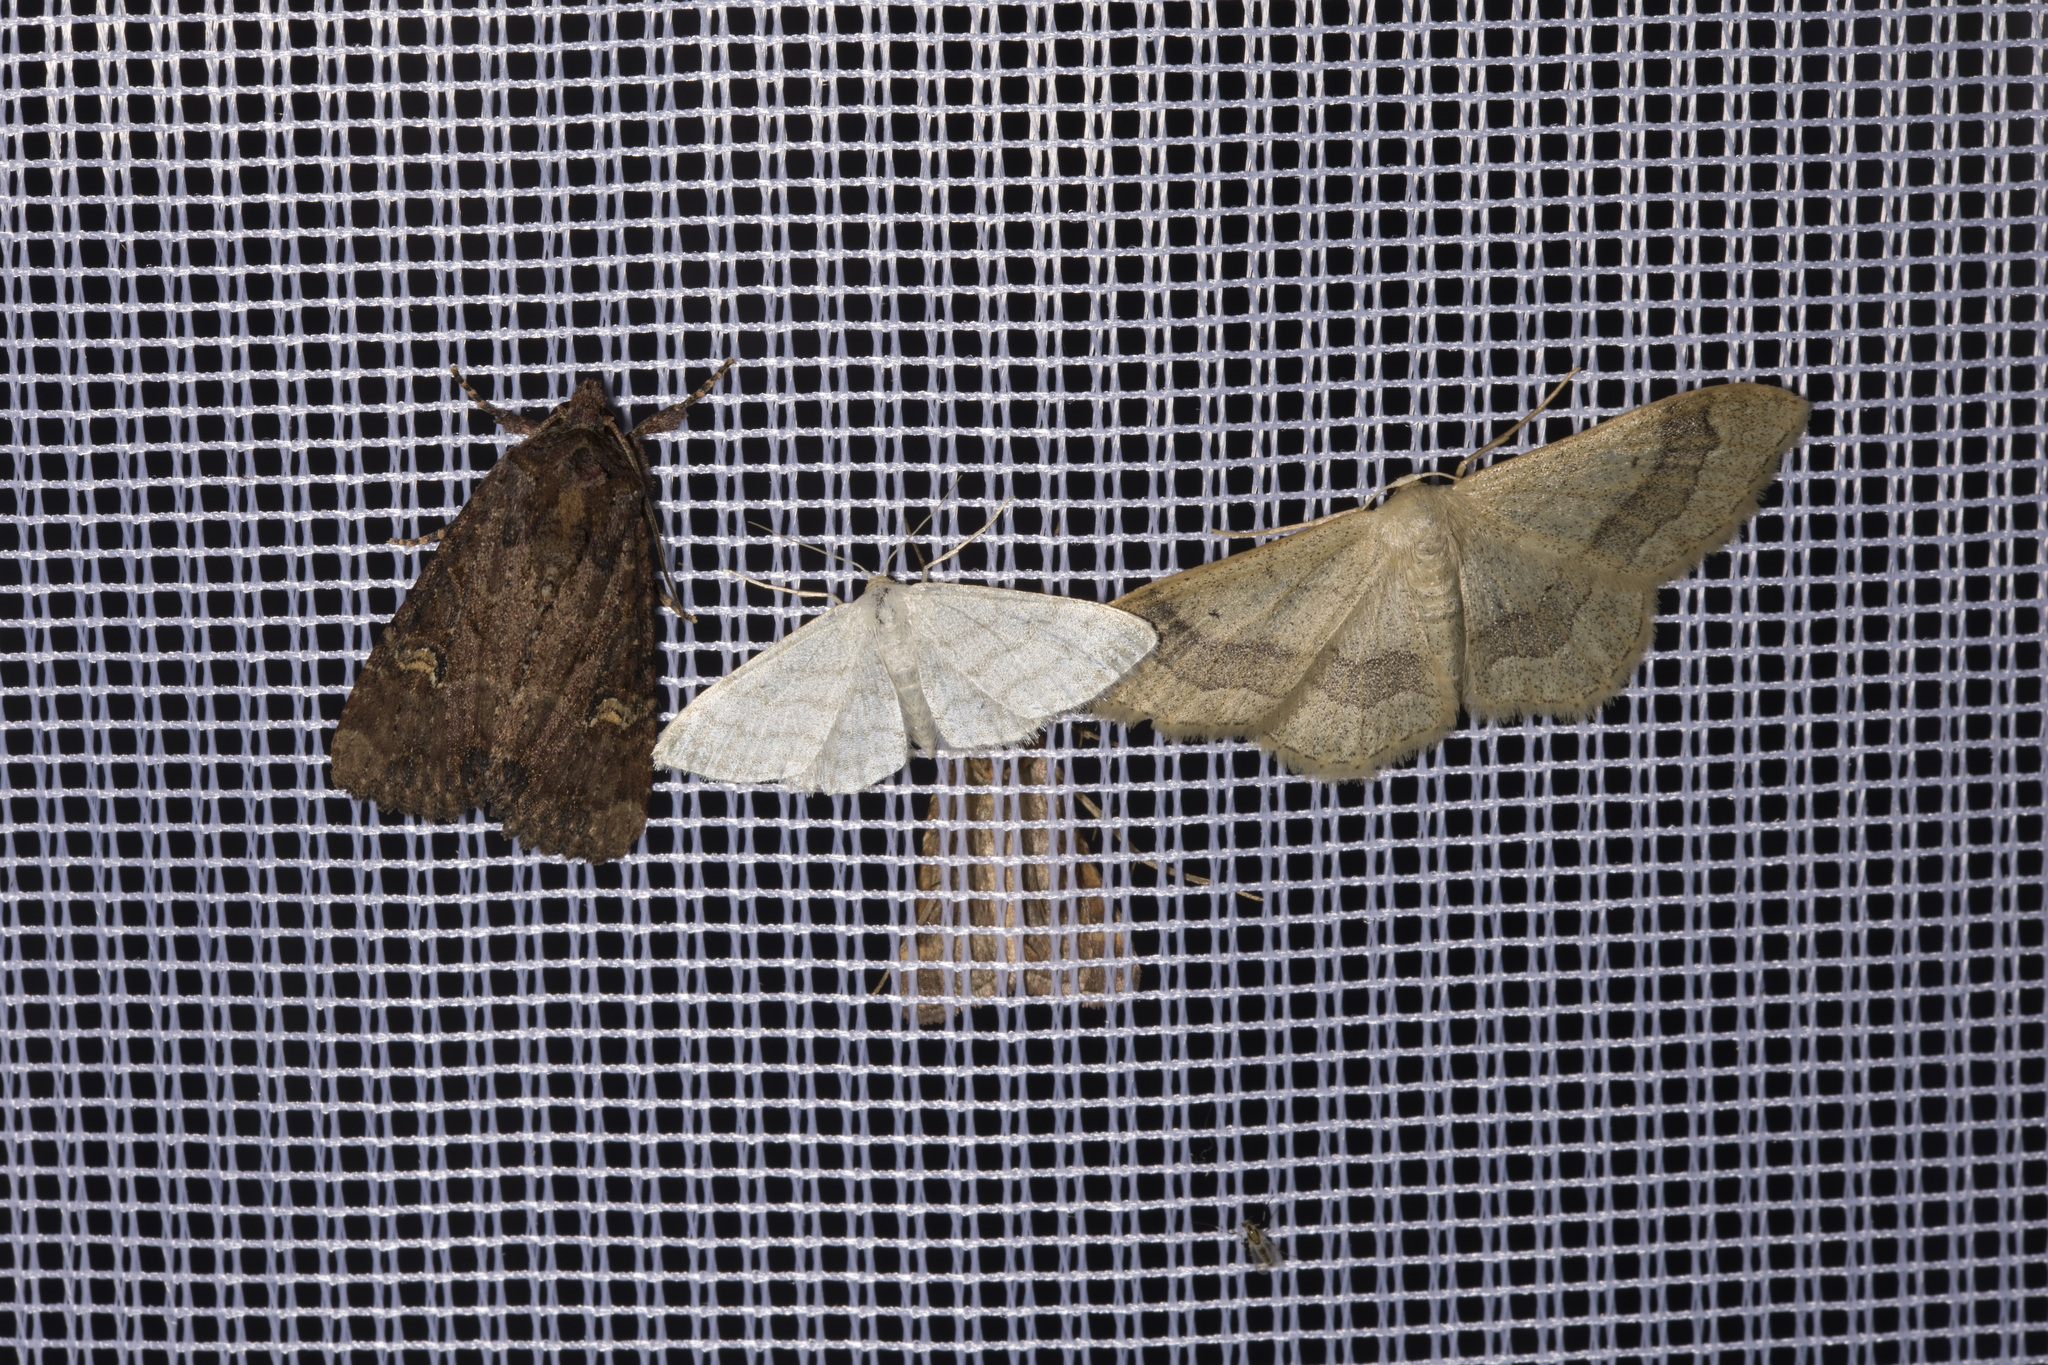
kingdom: Animalia
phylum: Arthropoda
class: Insecta
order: Lepidoptera
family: Geometridae
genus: Idaea
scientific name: Idaea aversata
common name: Riband wave
